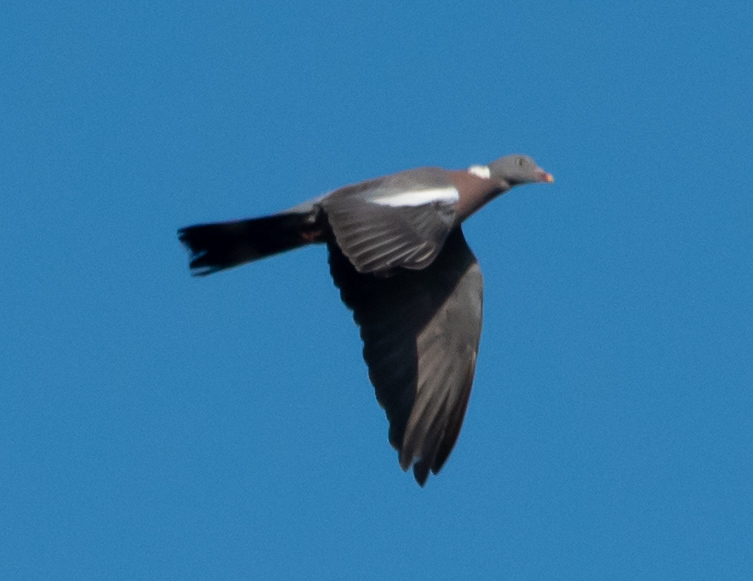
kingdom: Animalia
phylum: Chordata
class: Aves
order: Columbiformes
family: Columbidae
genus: Columba
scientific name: Columba palumbus
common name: Common wood pigeon
